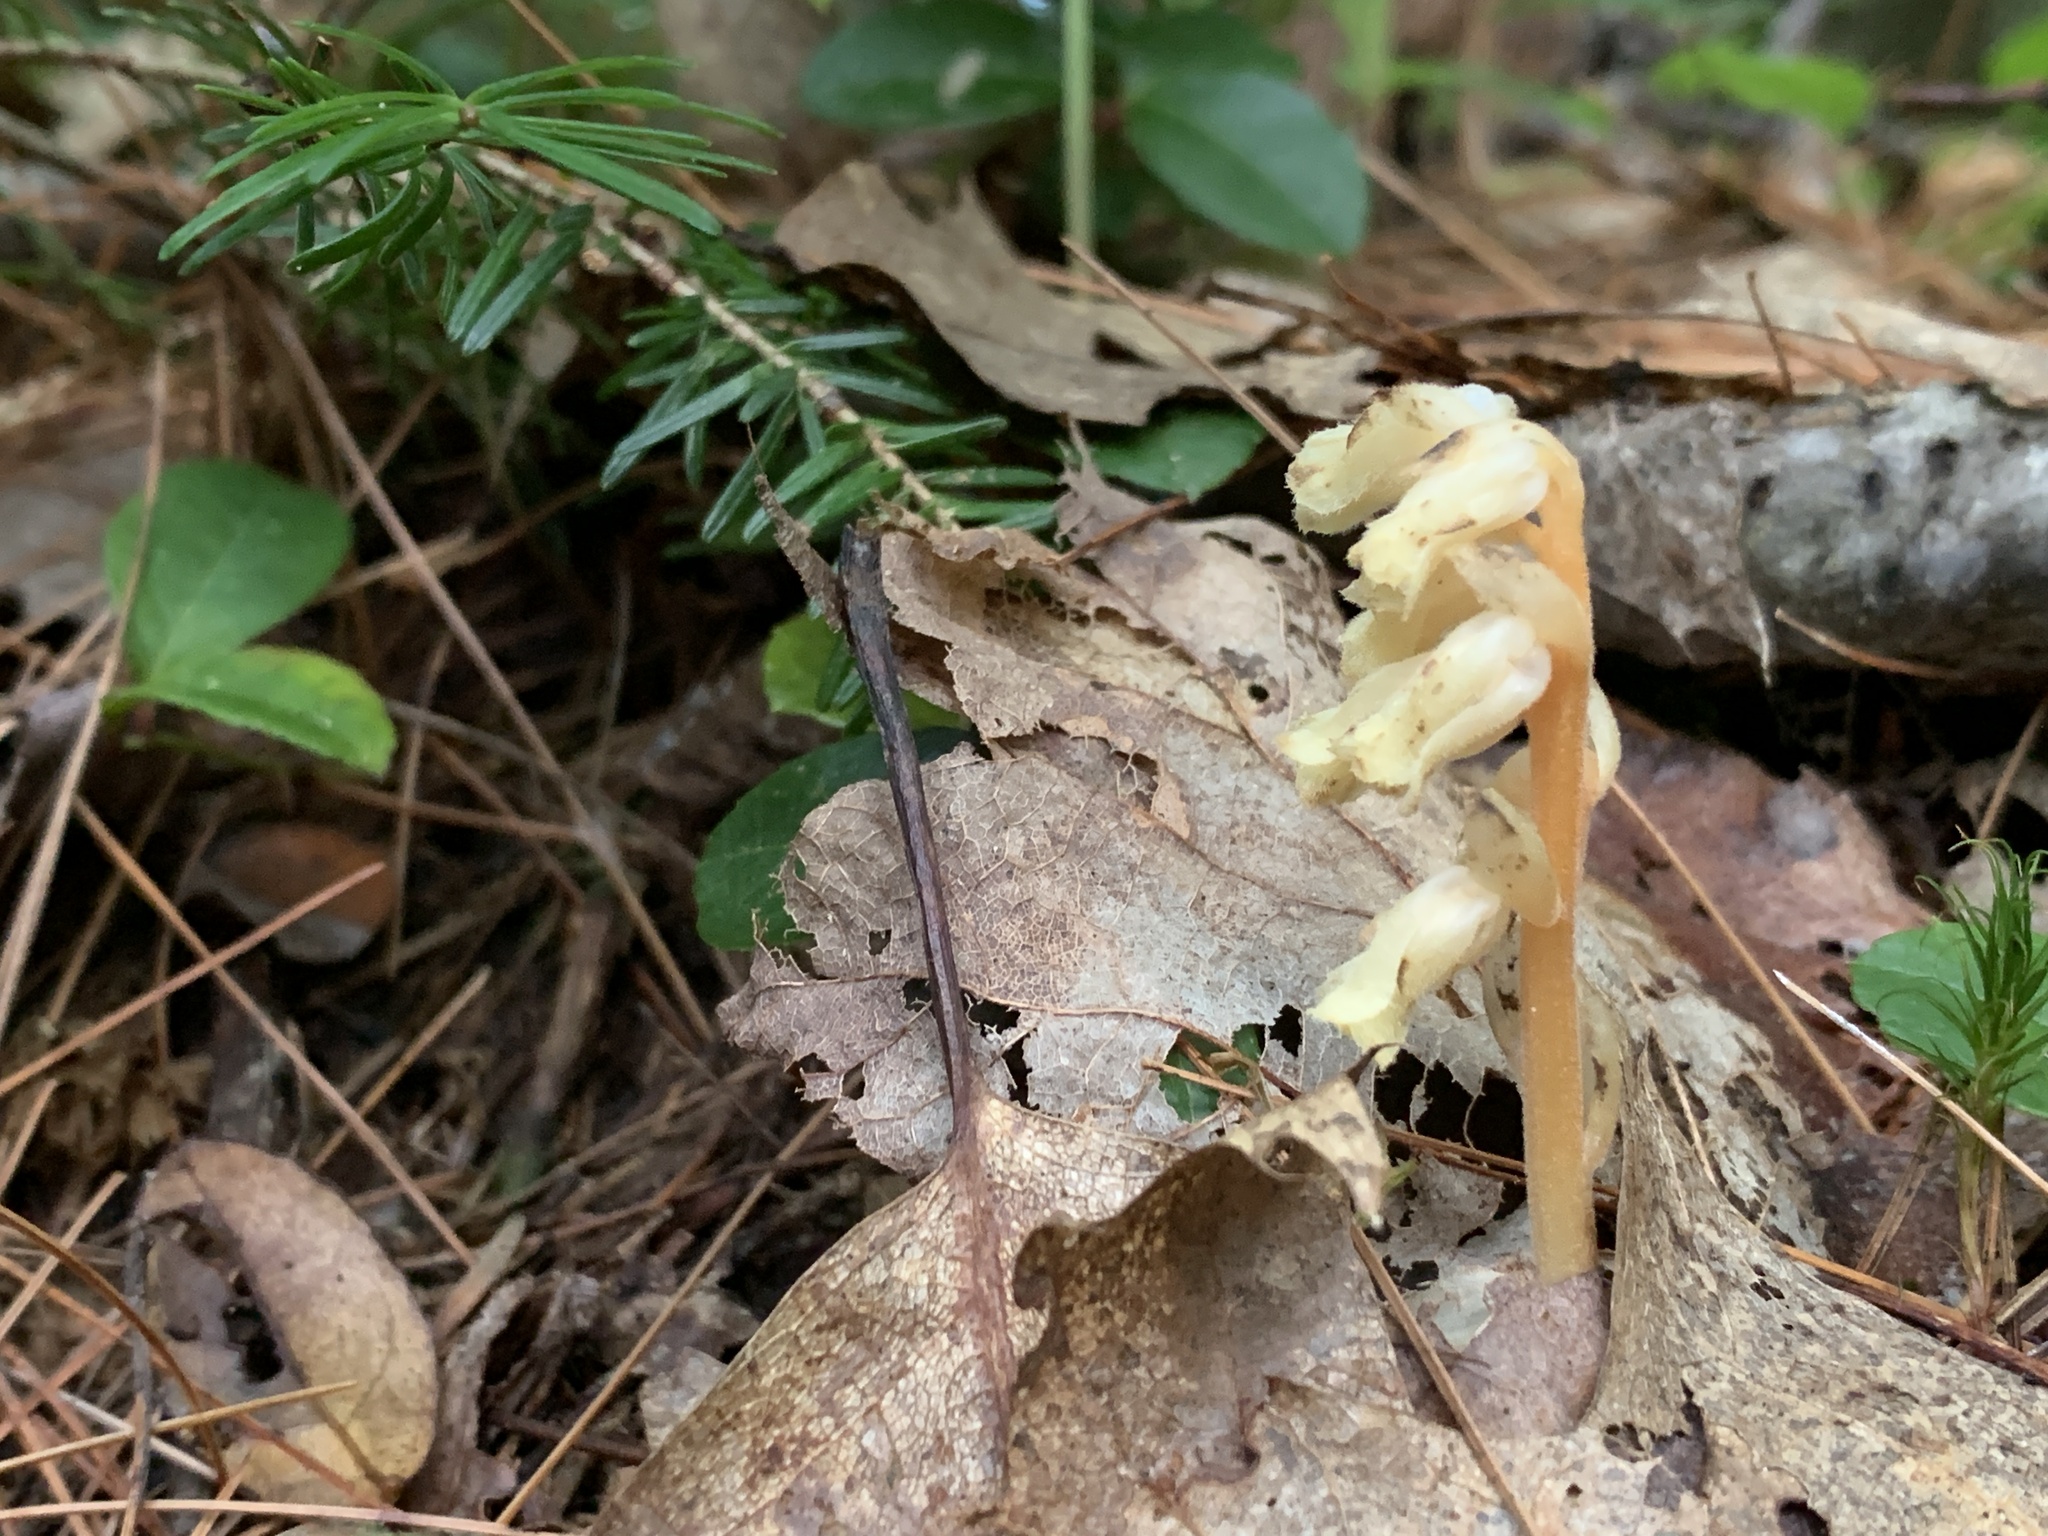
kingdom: Plantae
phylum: Tracheophyta
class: Magnoliopsida
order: Ericales
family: Ericaceae
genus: Hypopitys
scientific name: Hypopitys monotropa
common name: Yellow bird's-nest
